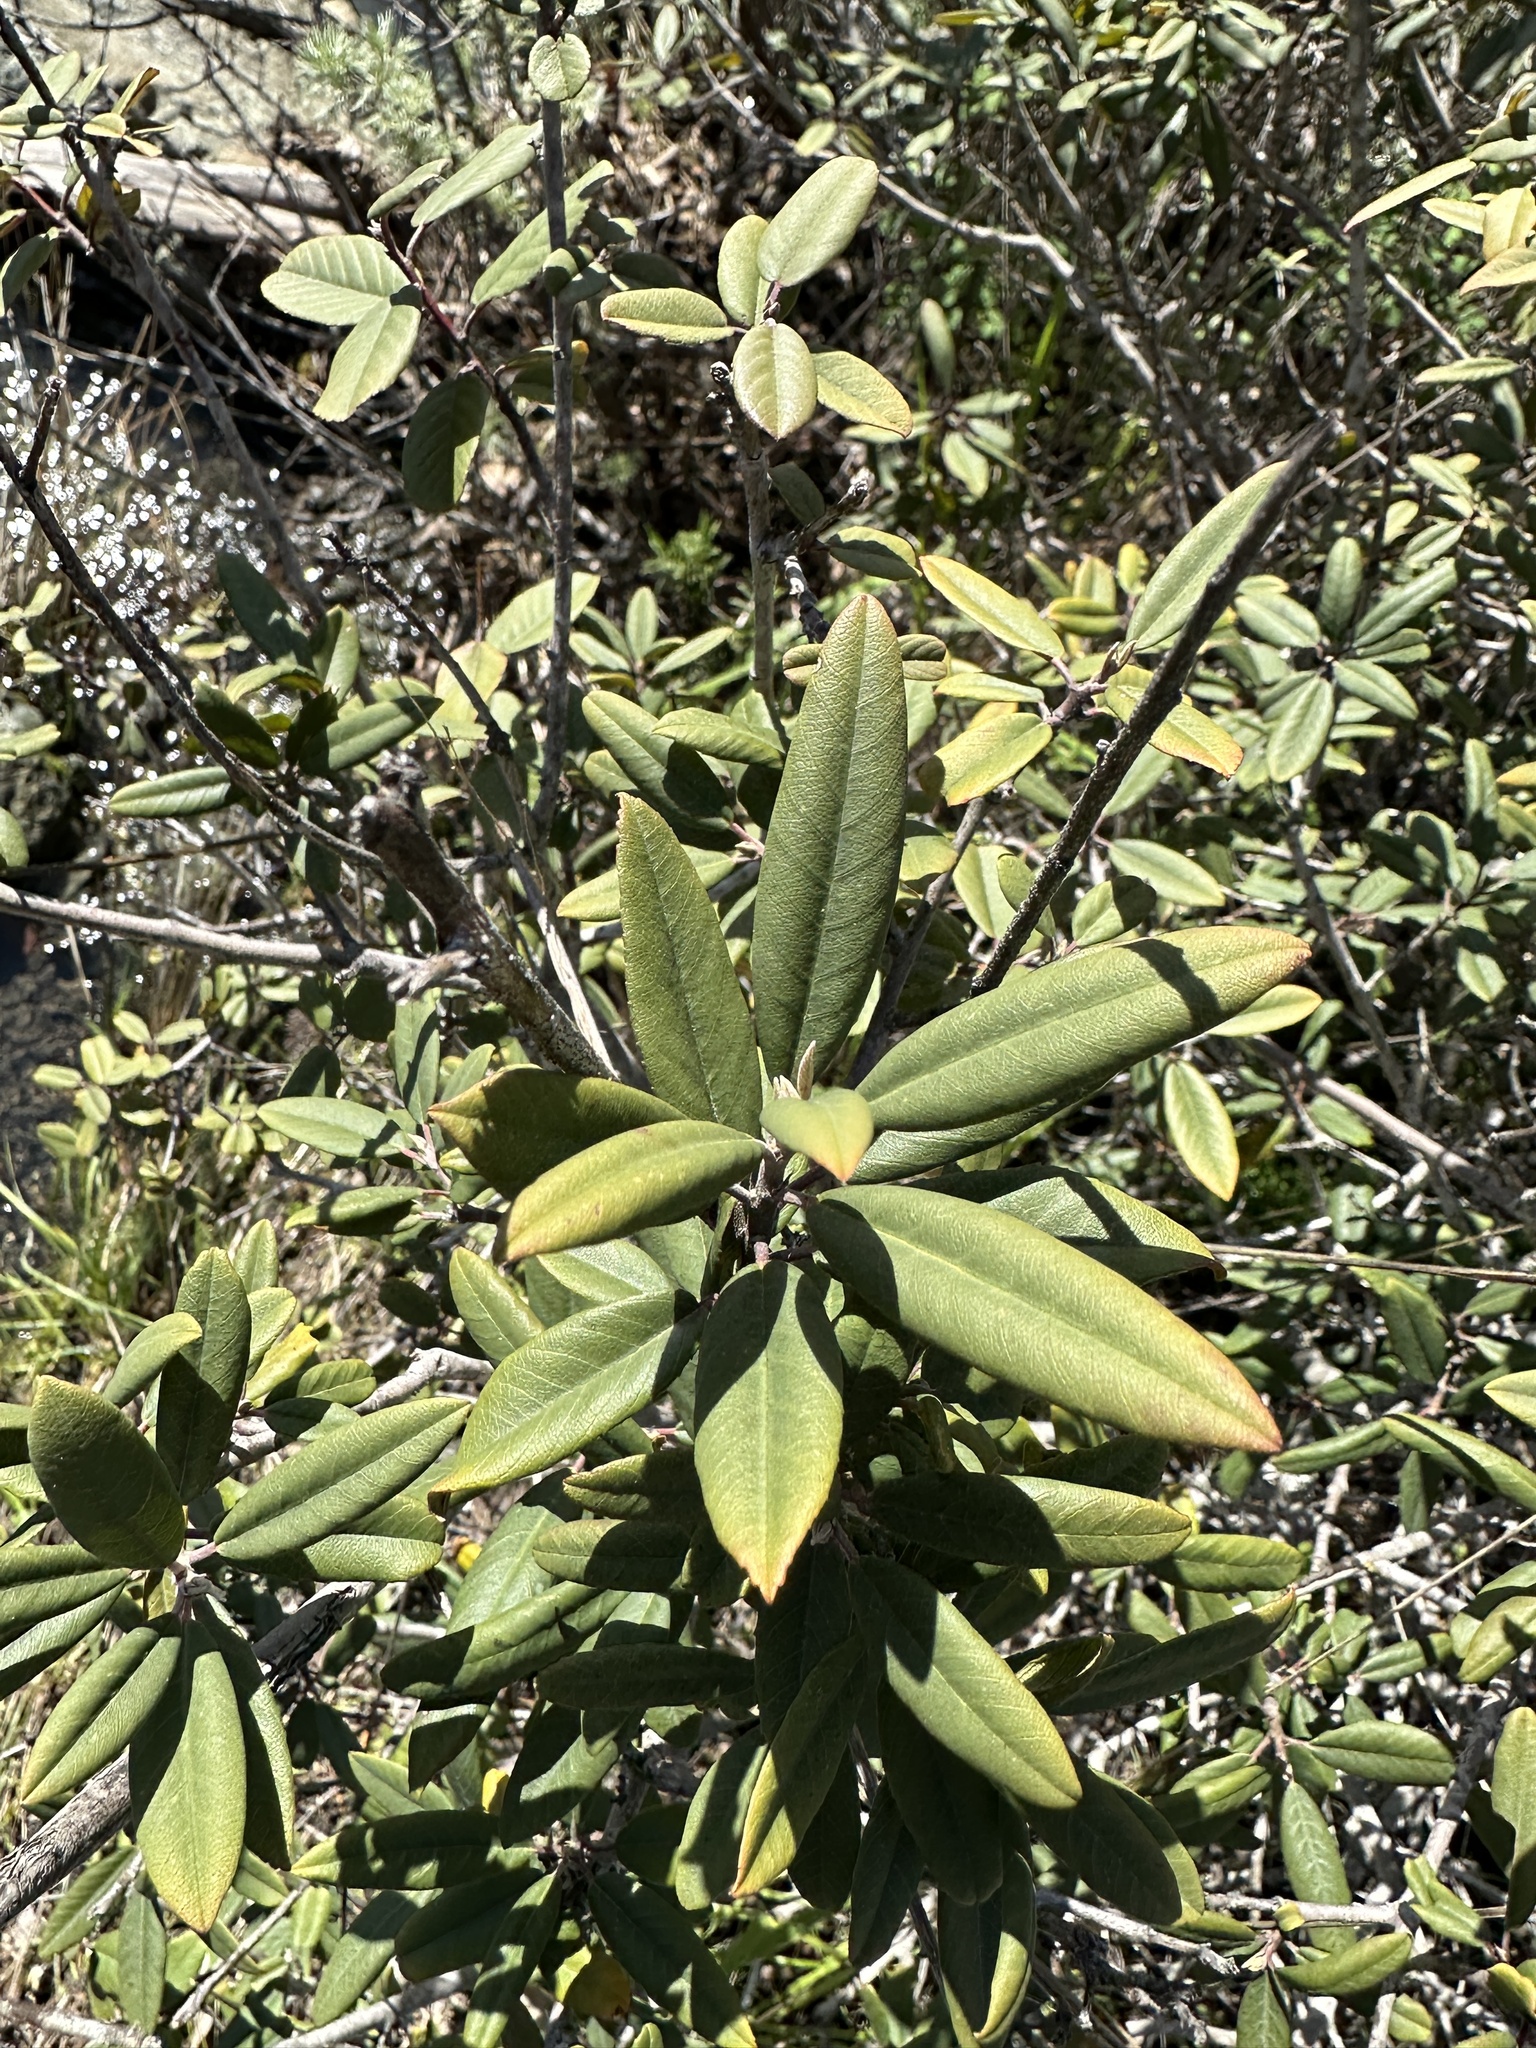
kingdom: Plantae
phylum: Tracheophyta
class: Magnoliopsida
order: Rosales
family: Rhamnaceae
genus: Frangula
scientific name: Frangula californica
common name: California buckthorn
